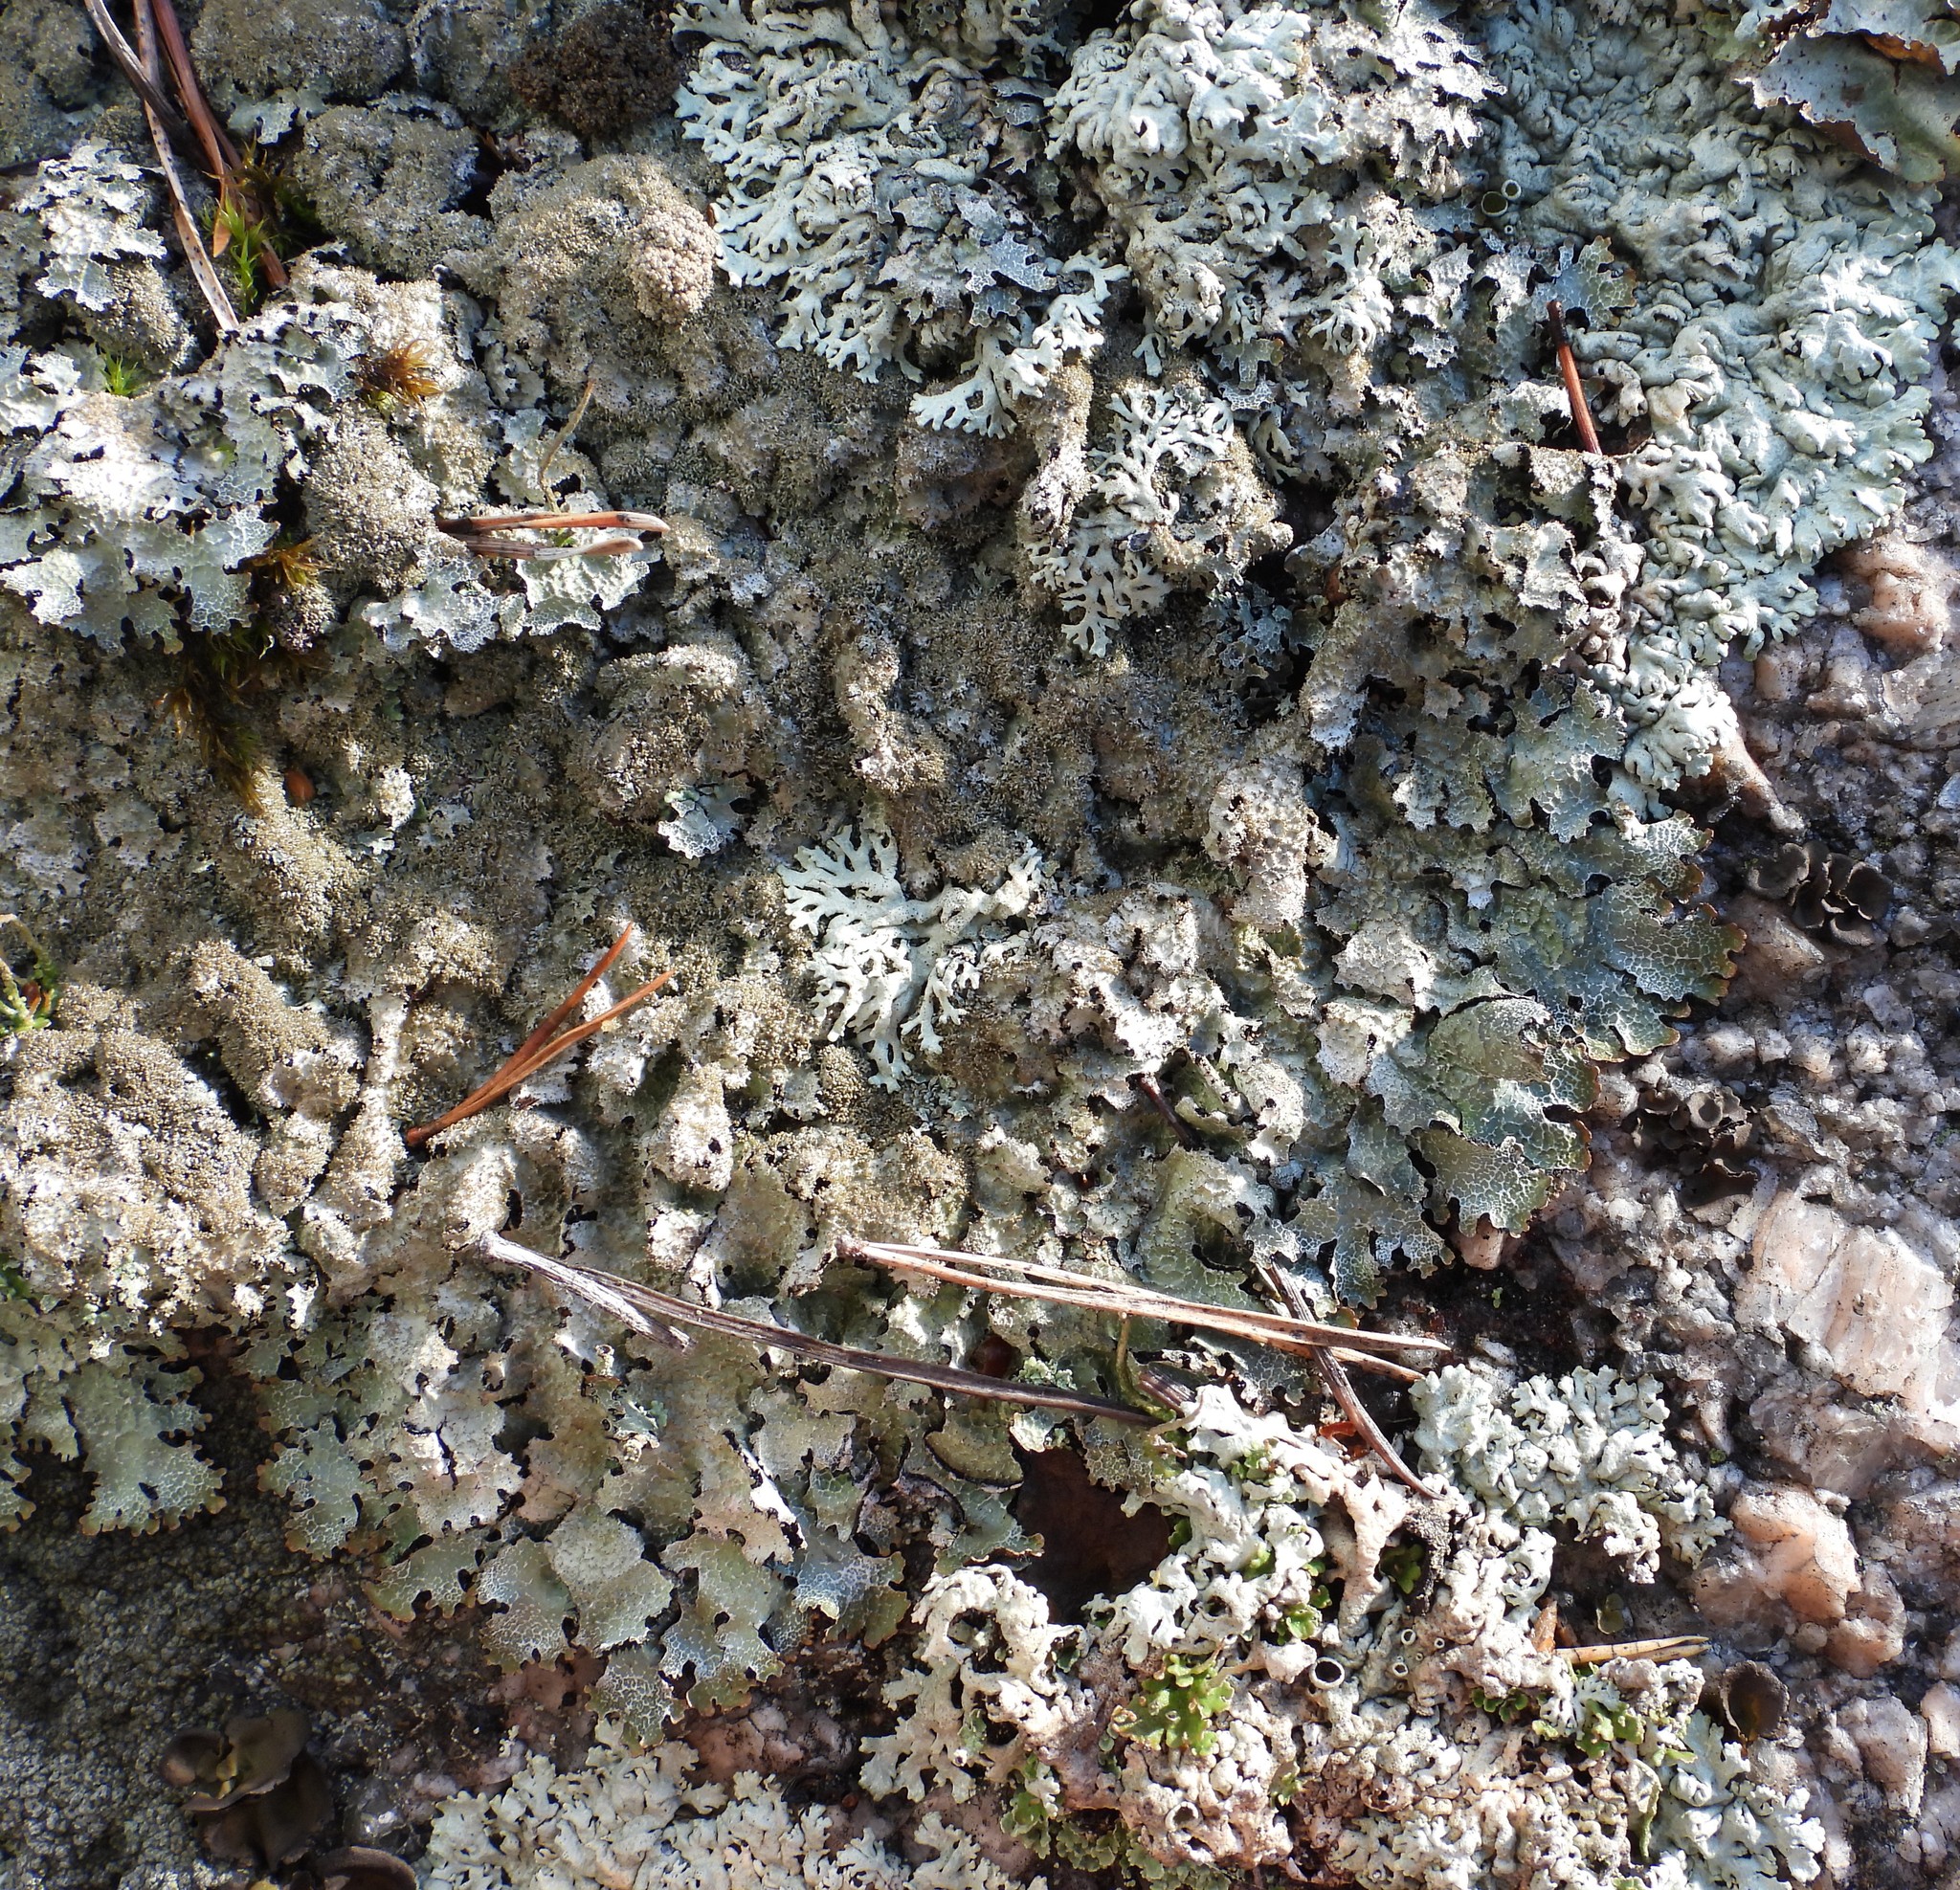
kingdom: Fungi
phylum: Ascomycota
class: Lecanoromycetes
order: Lecanorales
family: Parmeliaceae
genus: Parmelia
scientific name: Parmelia saxatilis
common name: Salted shield lichen
